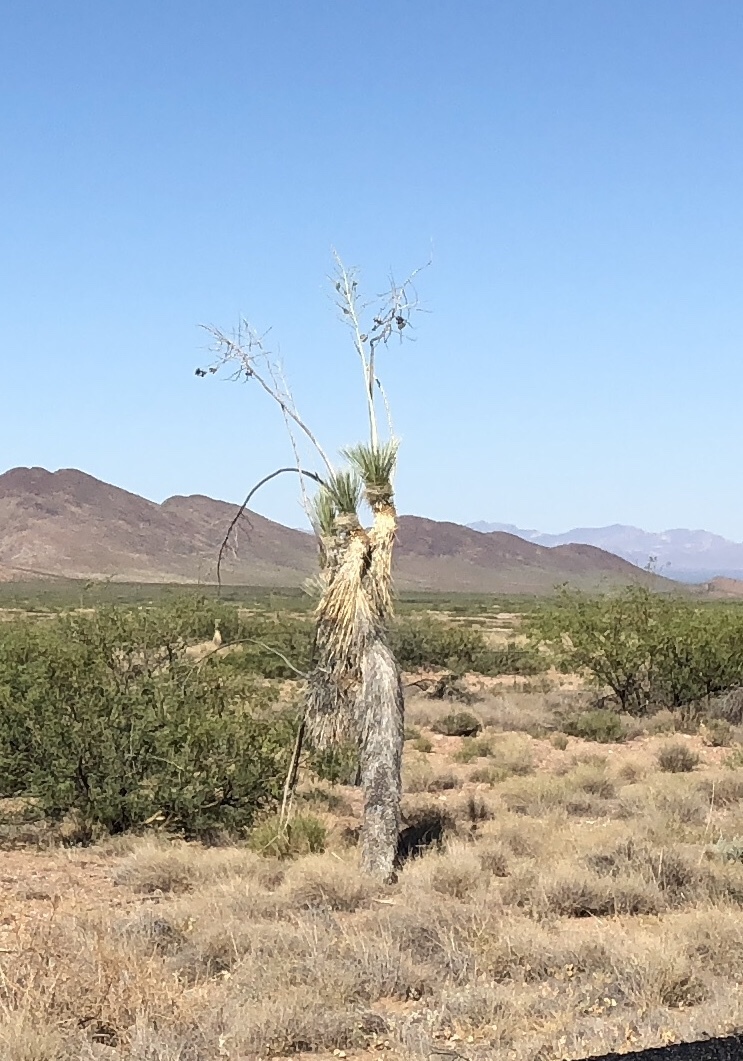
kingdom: Plantae
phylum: Tracheophyta
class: Liliopsida
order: Asparagales
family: Asparagaceae
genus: Yucca
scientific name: Yucca elata
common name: Palmella
